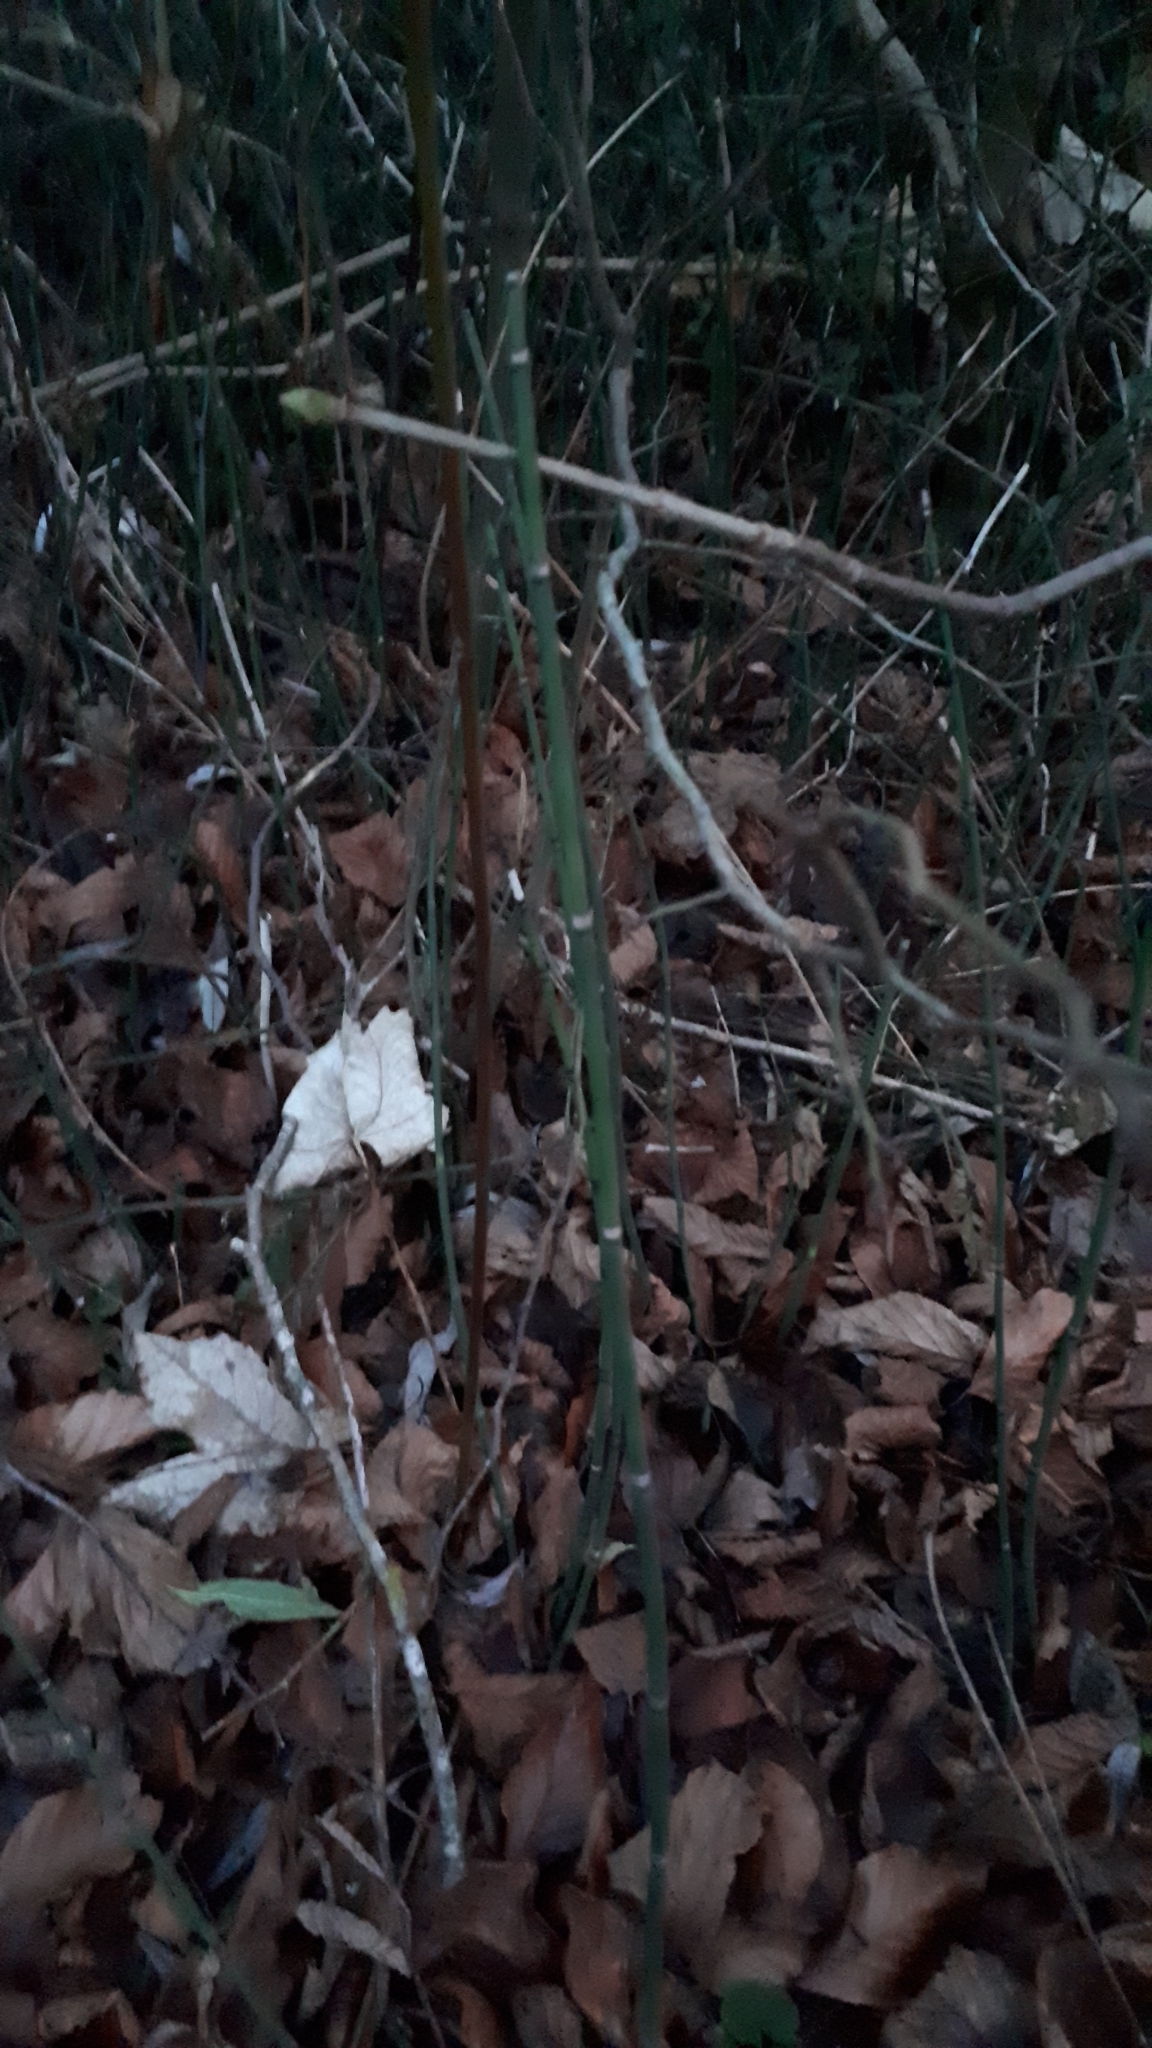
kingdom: Plantae
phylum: Tracheophyta
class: Polypodiopsida
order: Equisetales
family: Equisetaceae
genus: Equisetum
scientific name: Equisetum hyemale
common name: Rough horsetail
